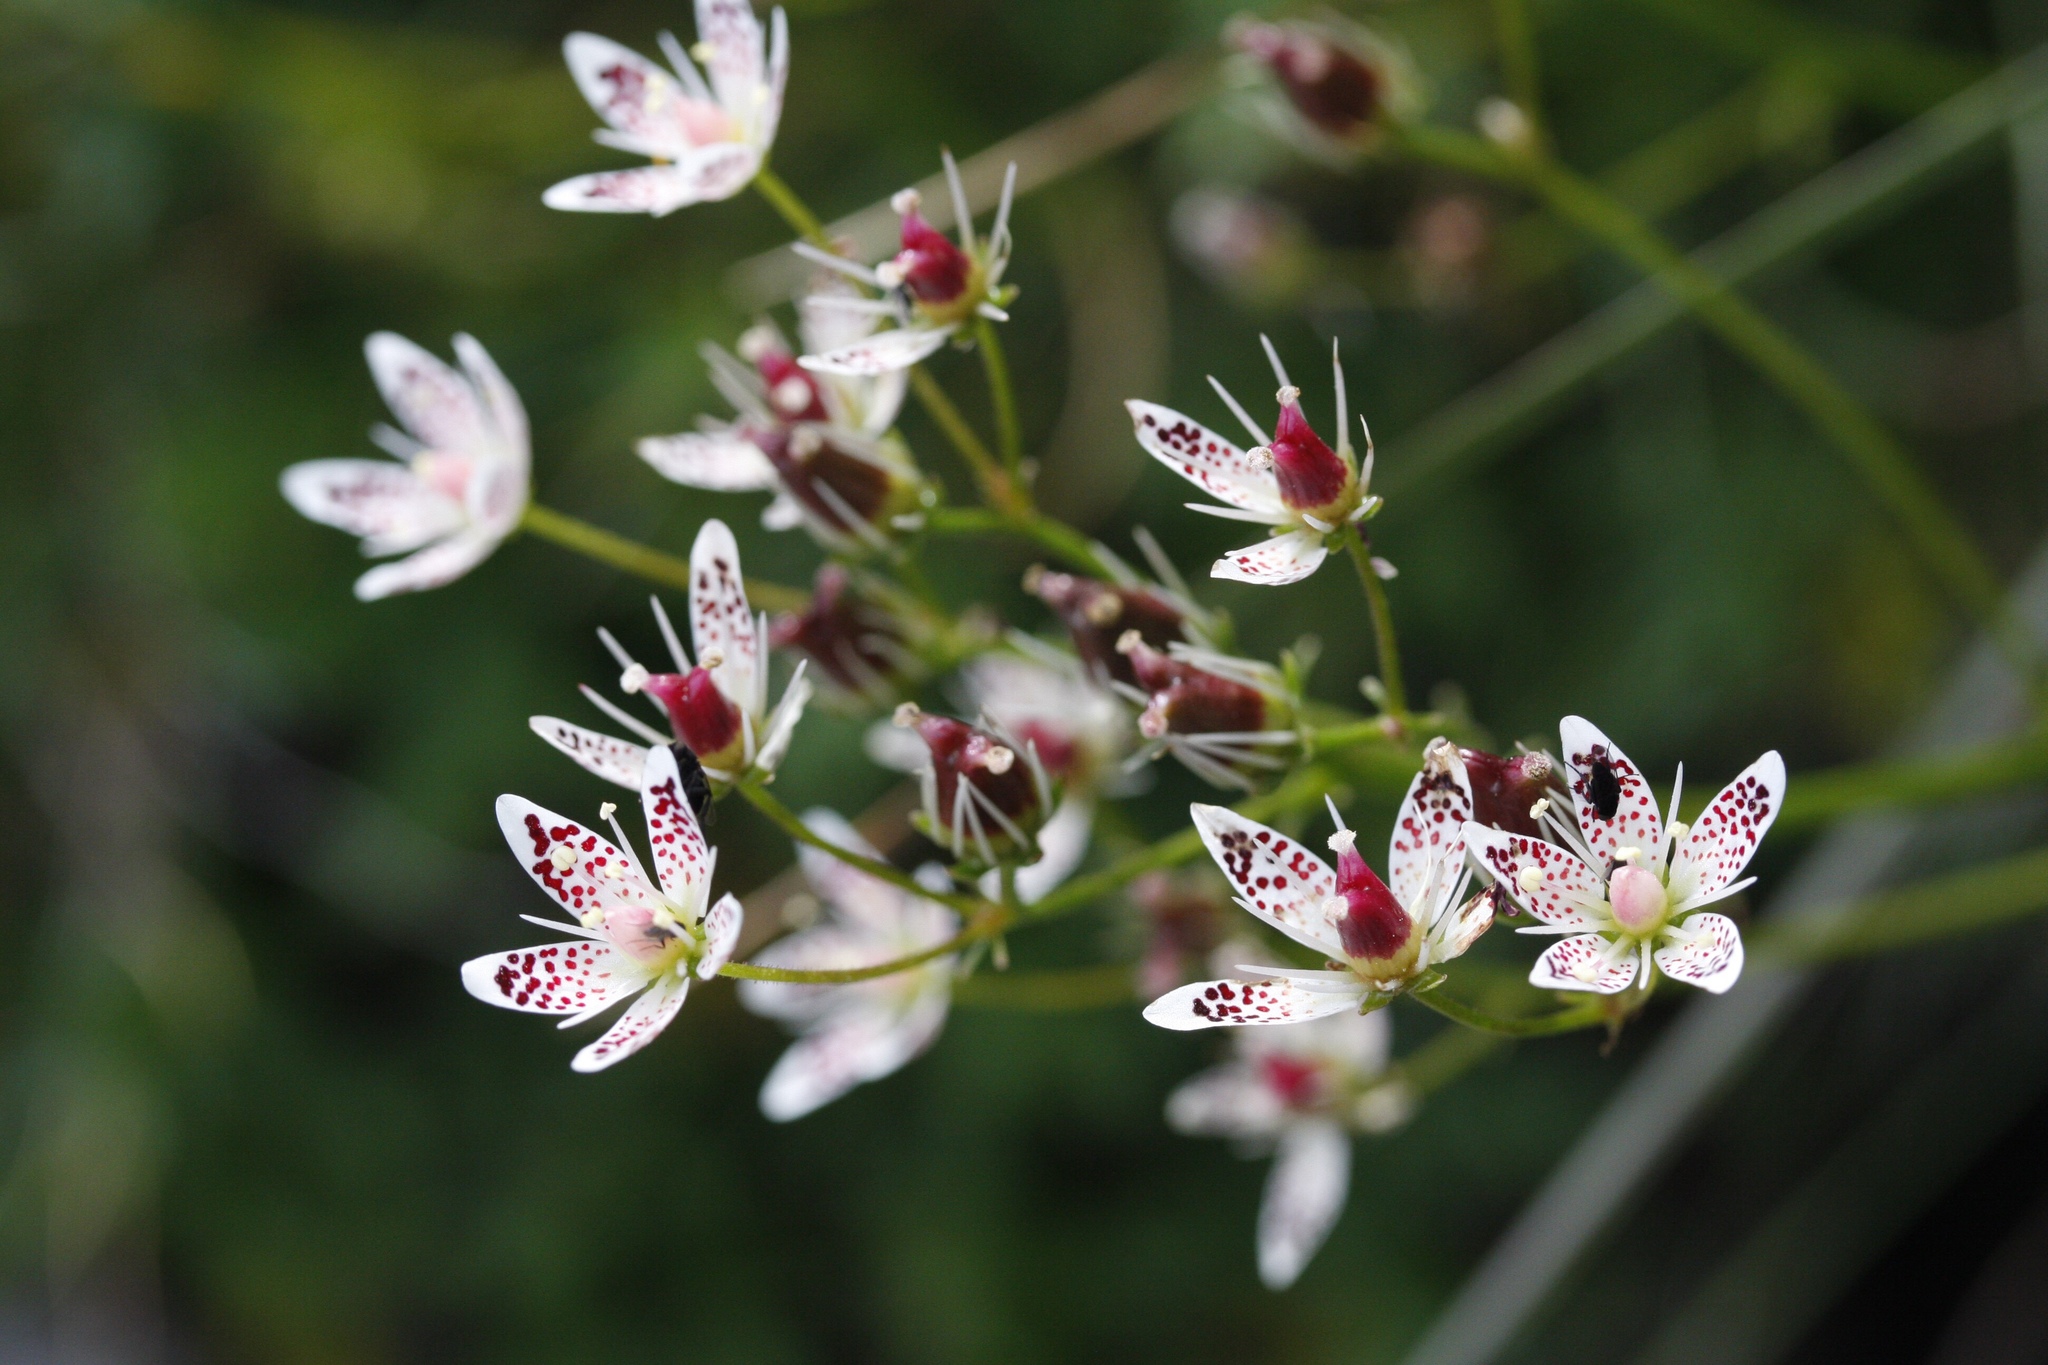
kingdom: Plantae
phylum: Tracheophyta
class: Magnoliopsida
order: Saxifragales
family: Saxifragaceae
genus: Saxifraga
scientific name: Saxifraga rotundifolia
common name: Round-leaved saxifrage
